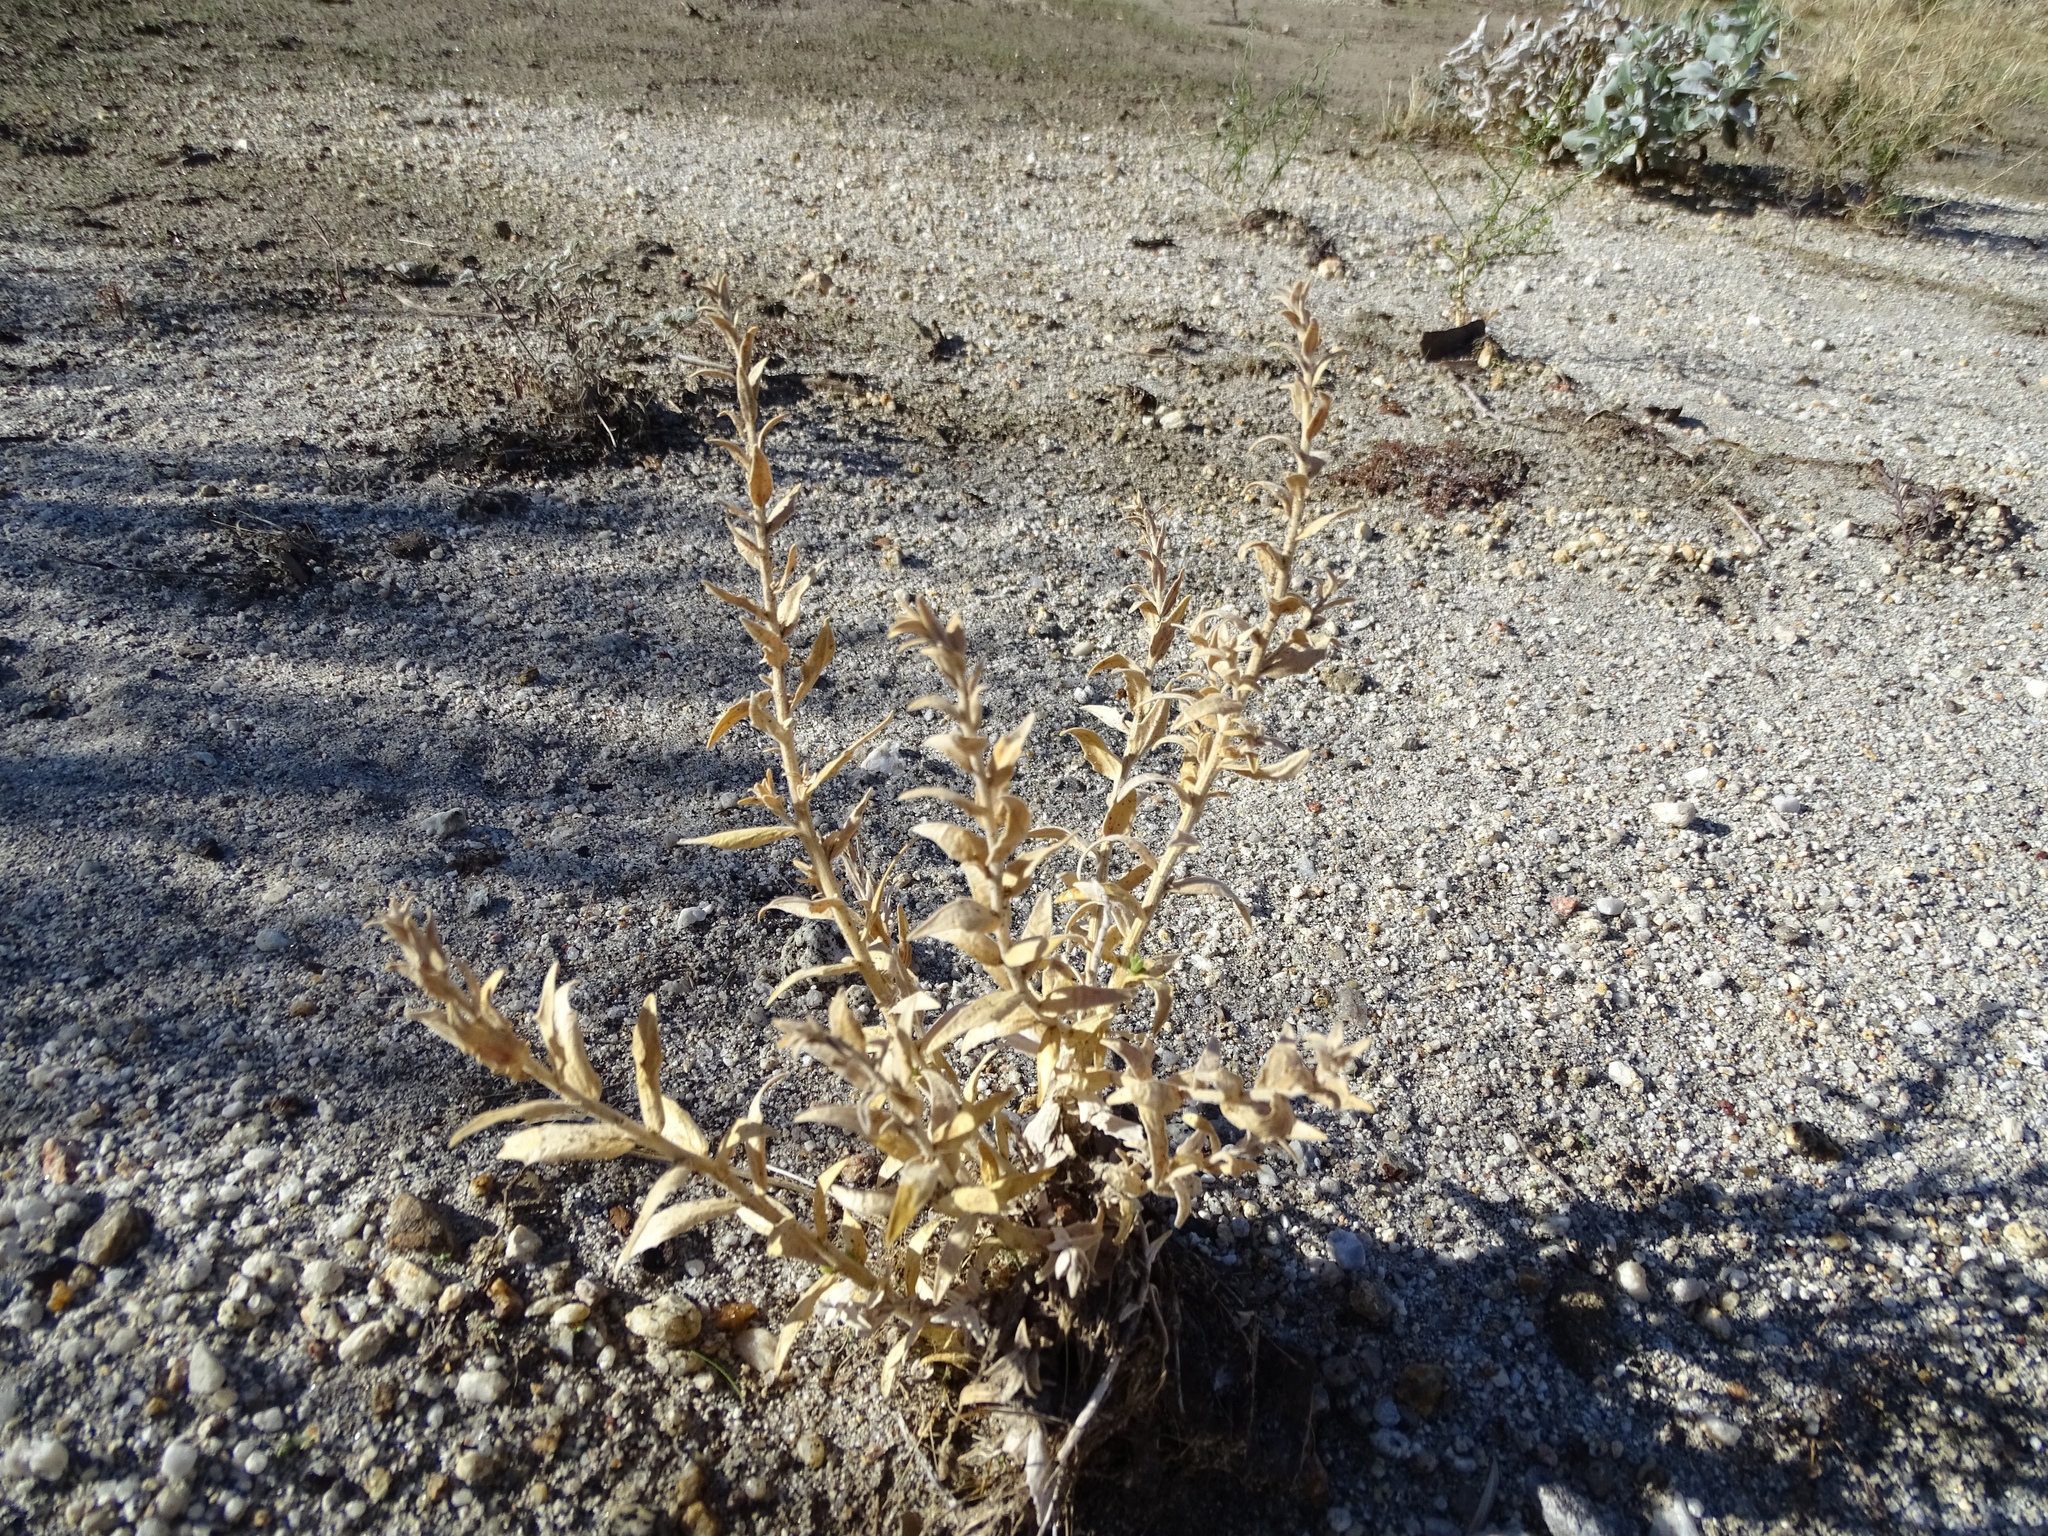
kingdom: Plantae
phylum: Tracheophyta
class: Magnoliopsida
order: Cornales
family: Loasaceae
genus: Petalonyx
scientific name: Petalonyx thurberi
